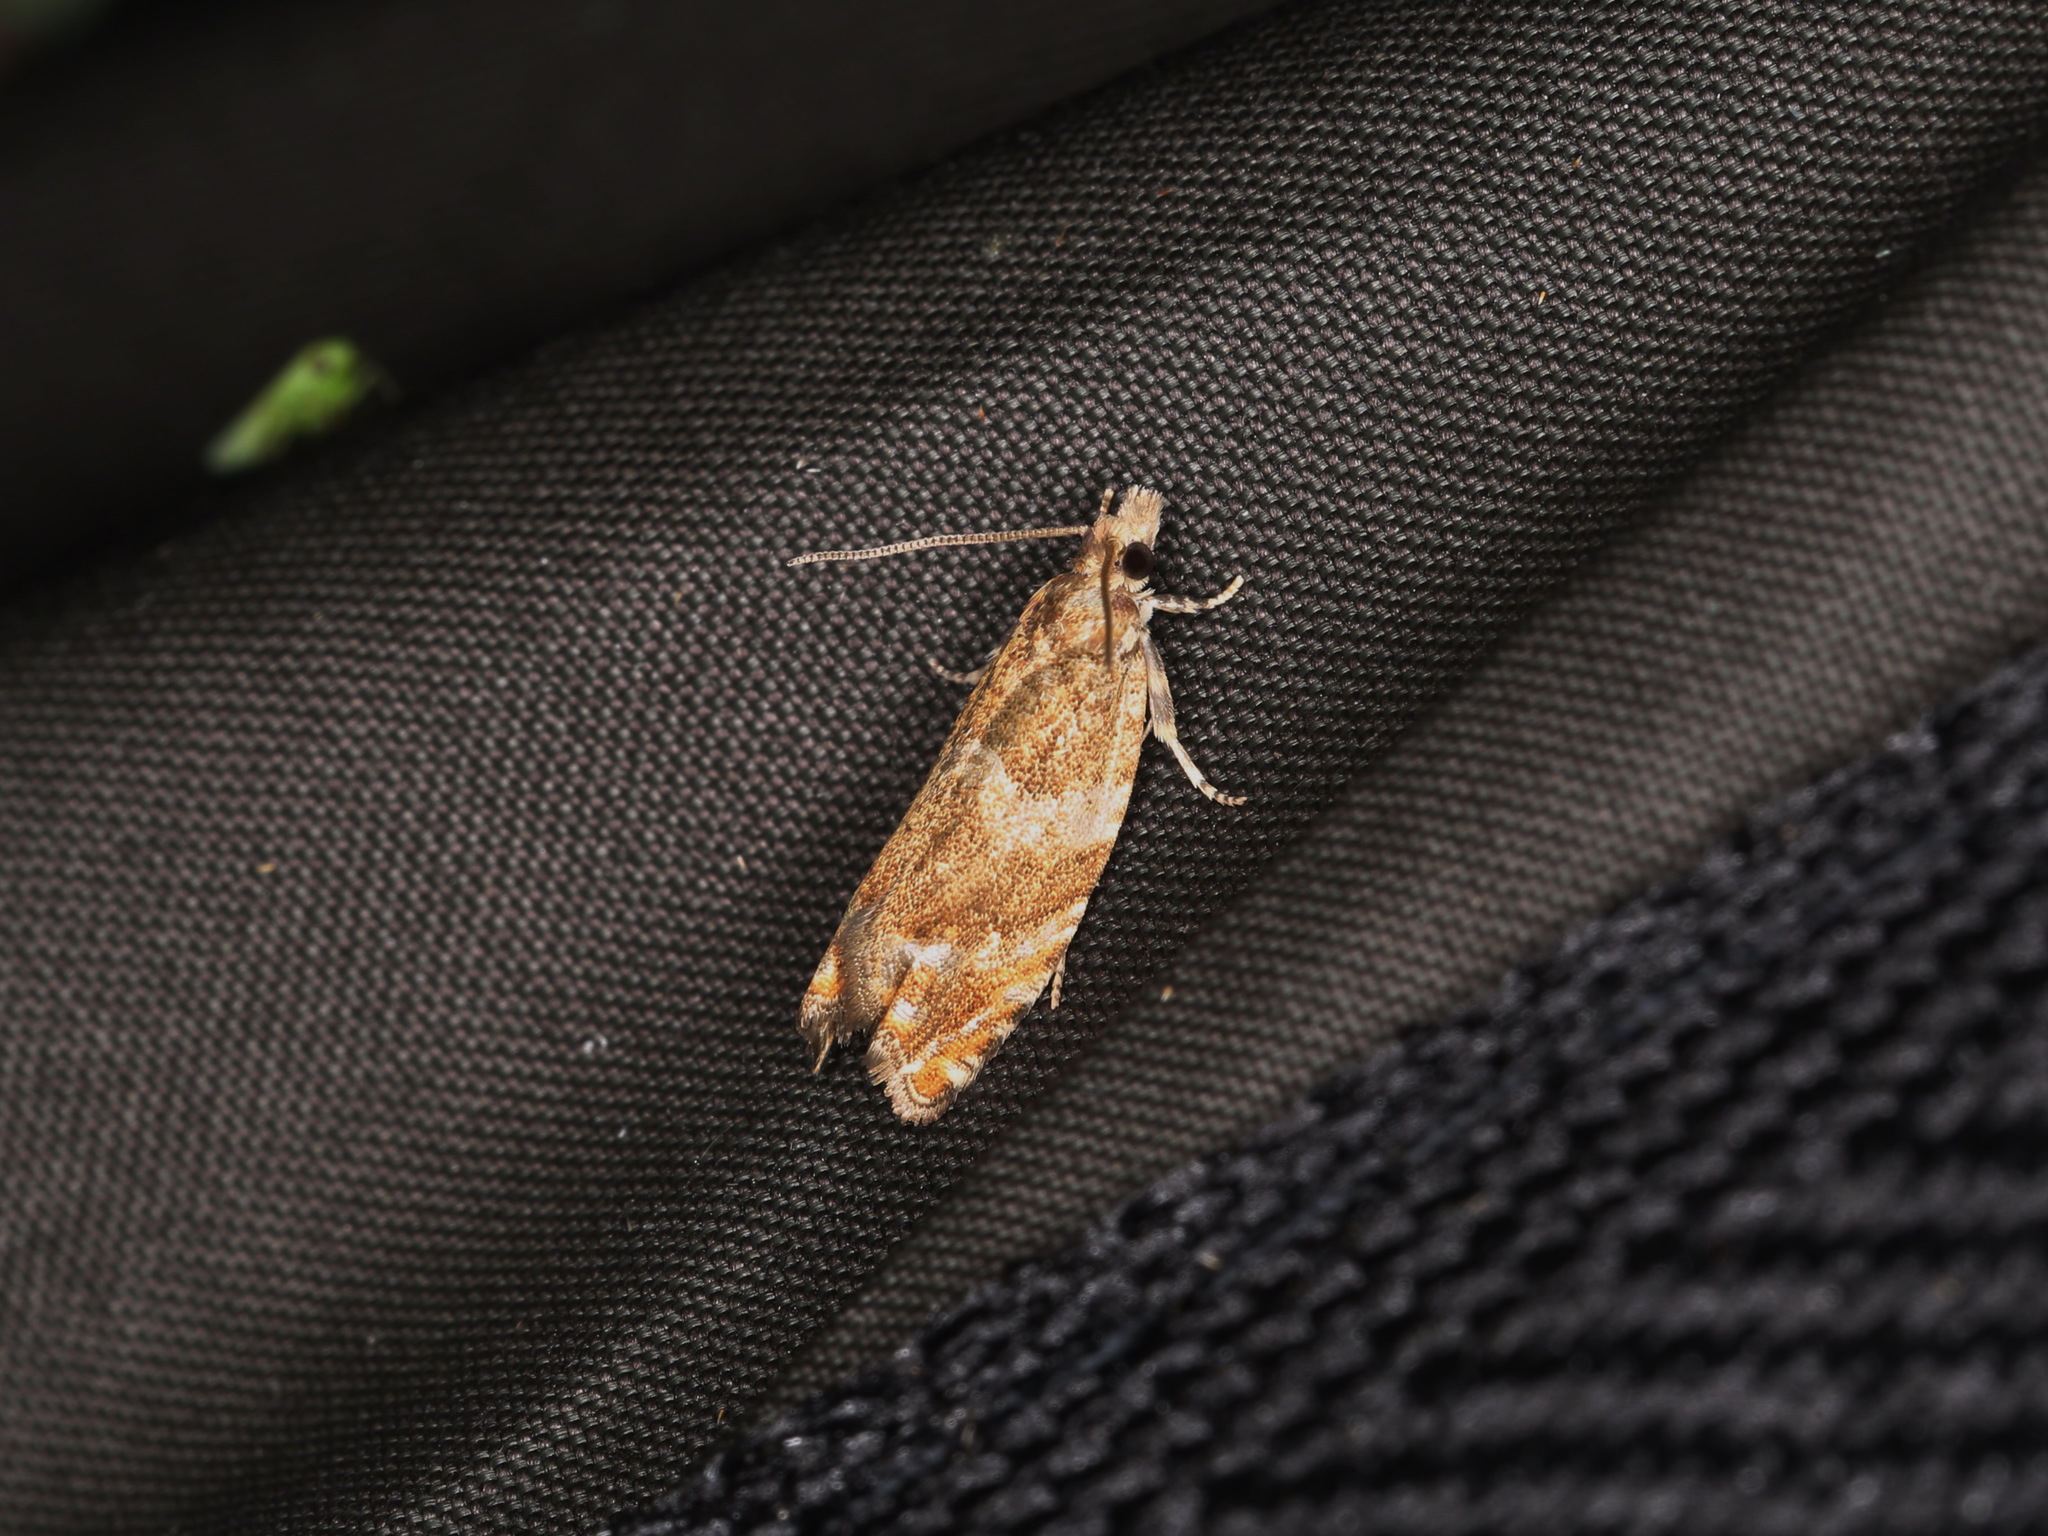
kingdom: Animalia
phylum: Arthropoda
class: Insecta
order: Lepidoptera
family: Tortricidae
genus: Epinotia
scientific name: Epinotia abbreviana
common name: Tortricid moth
